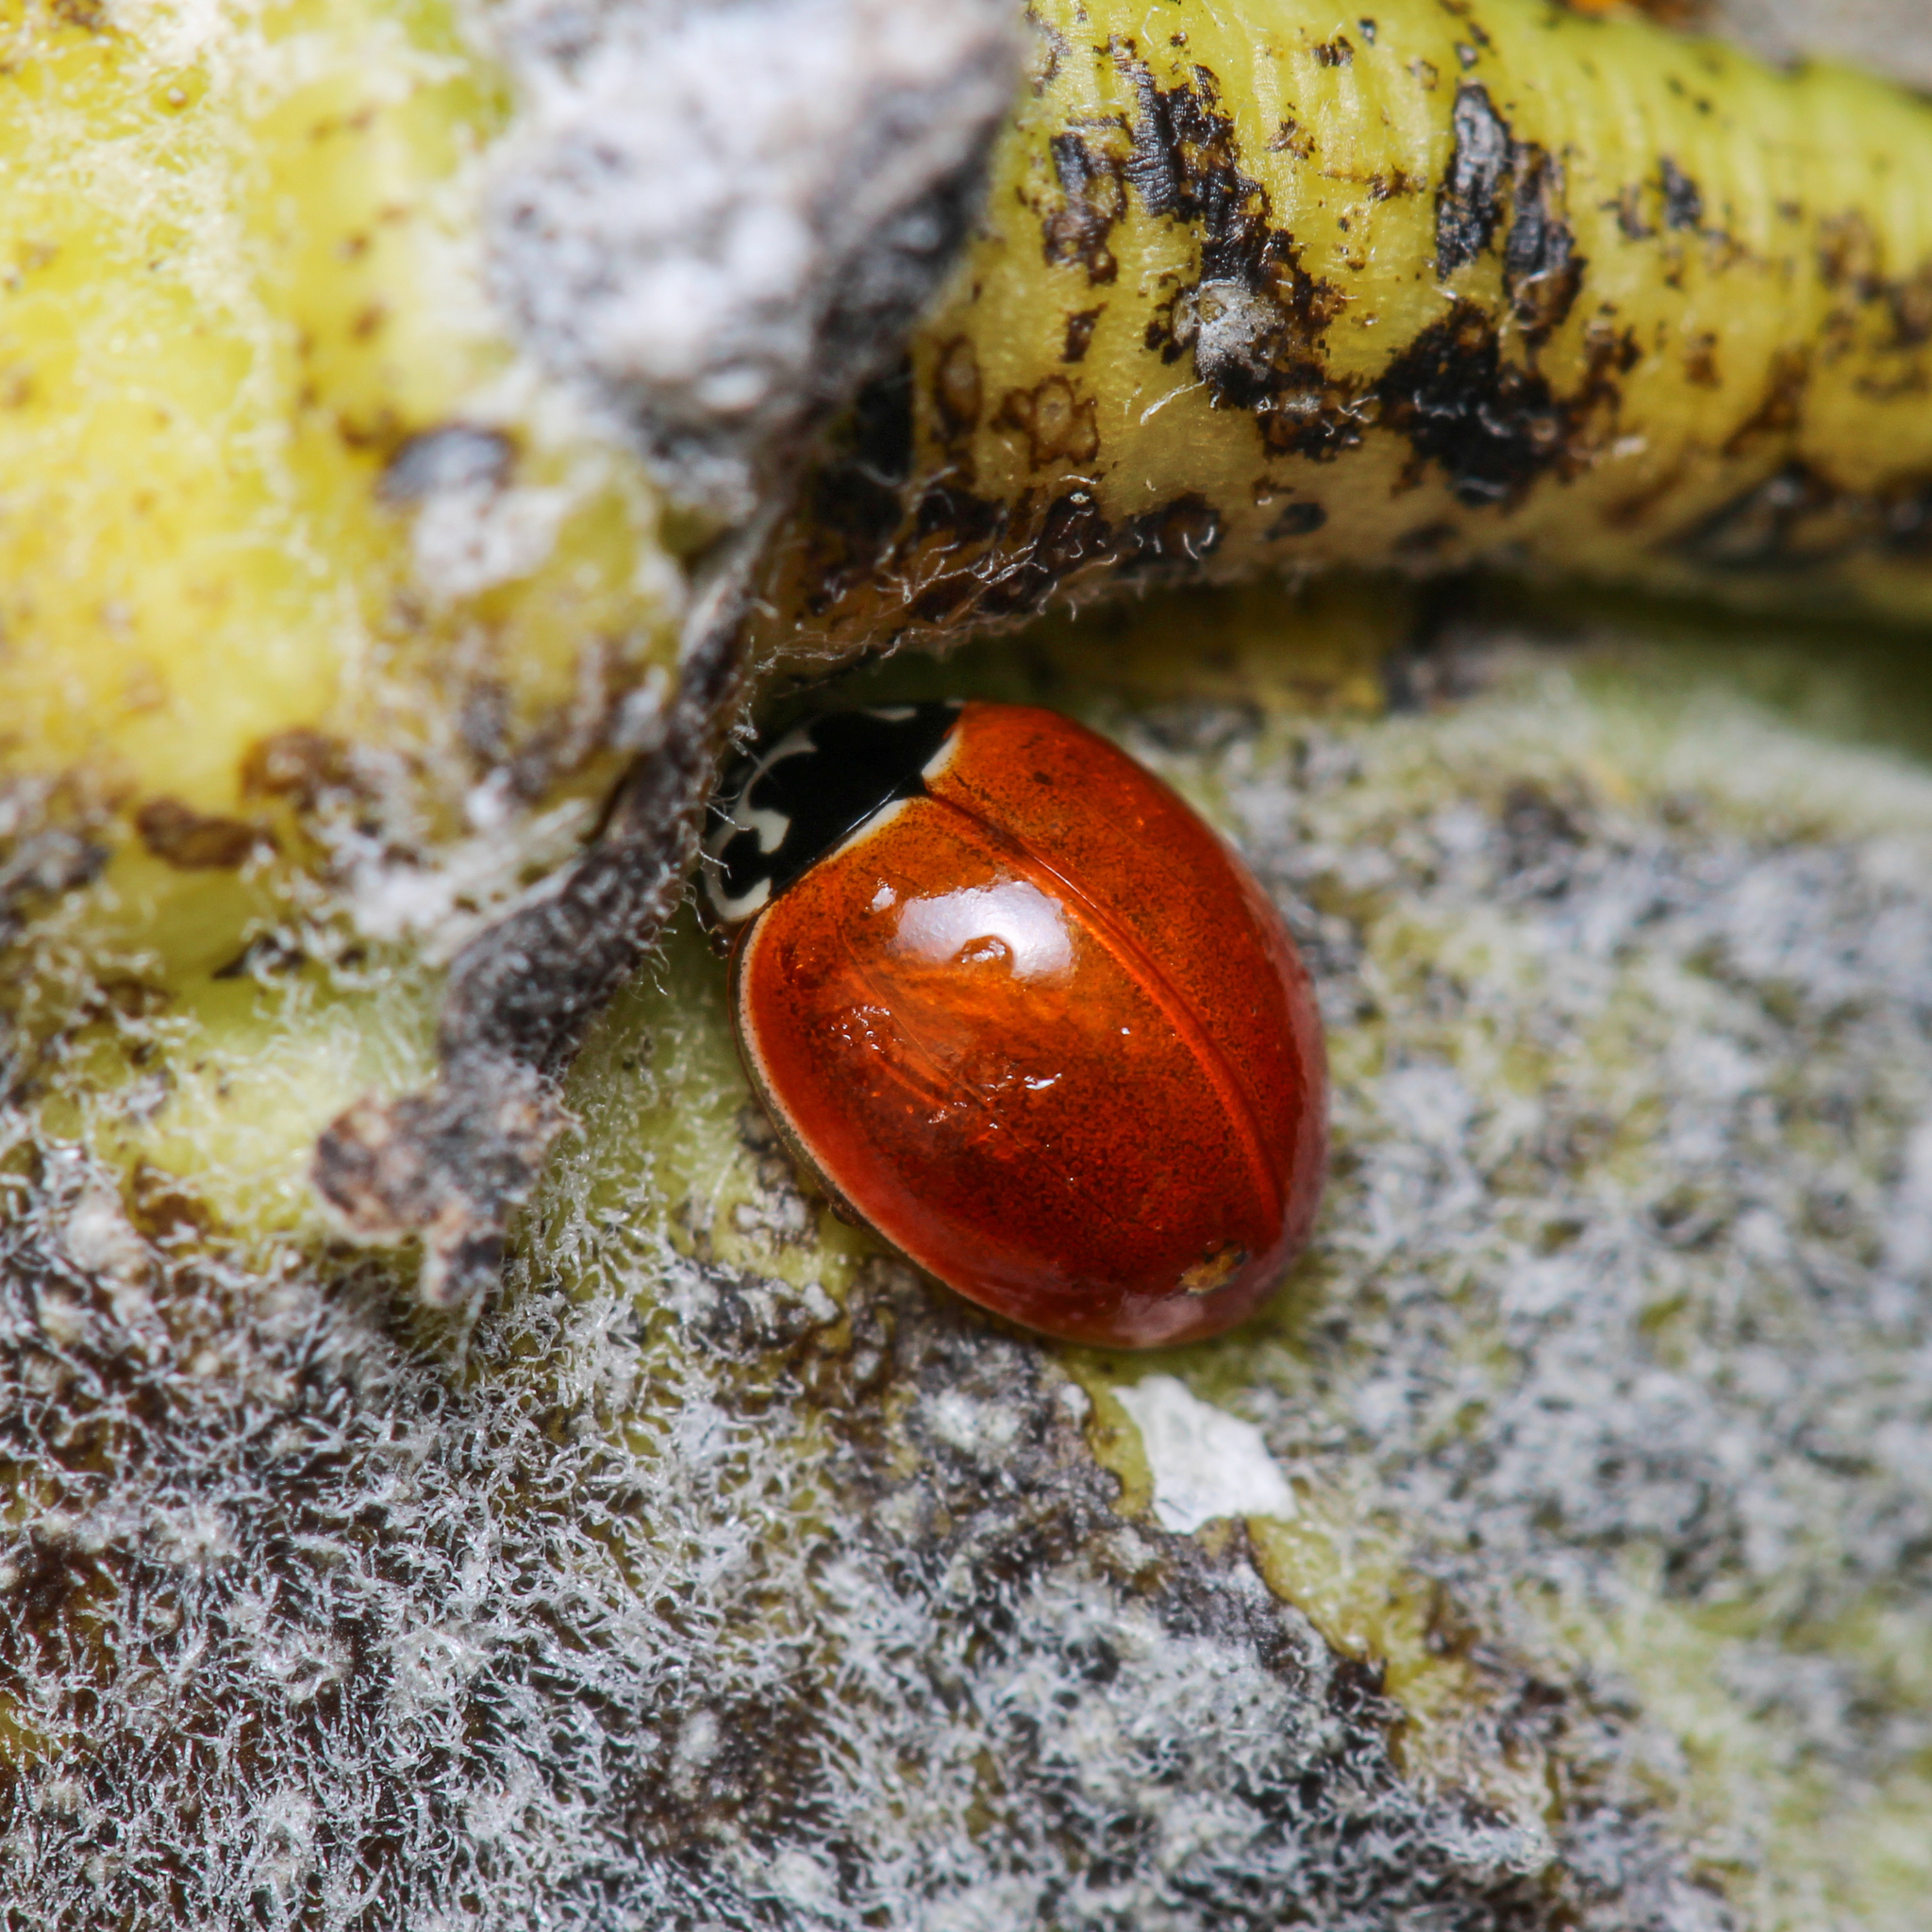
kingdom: Animalia
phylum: Arthropoda
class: Insecta
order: Coleoptera
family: Coccinellidae
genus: Cycloneda
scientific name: Cycloneda munda
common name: Polished lady beetle
